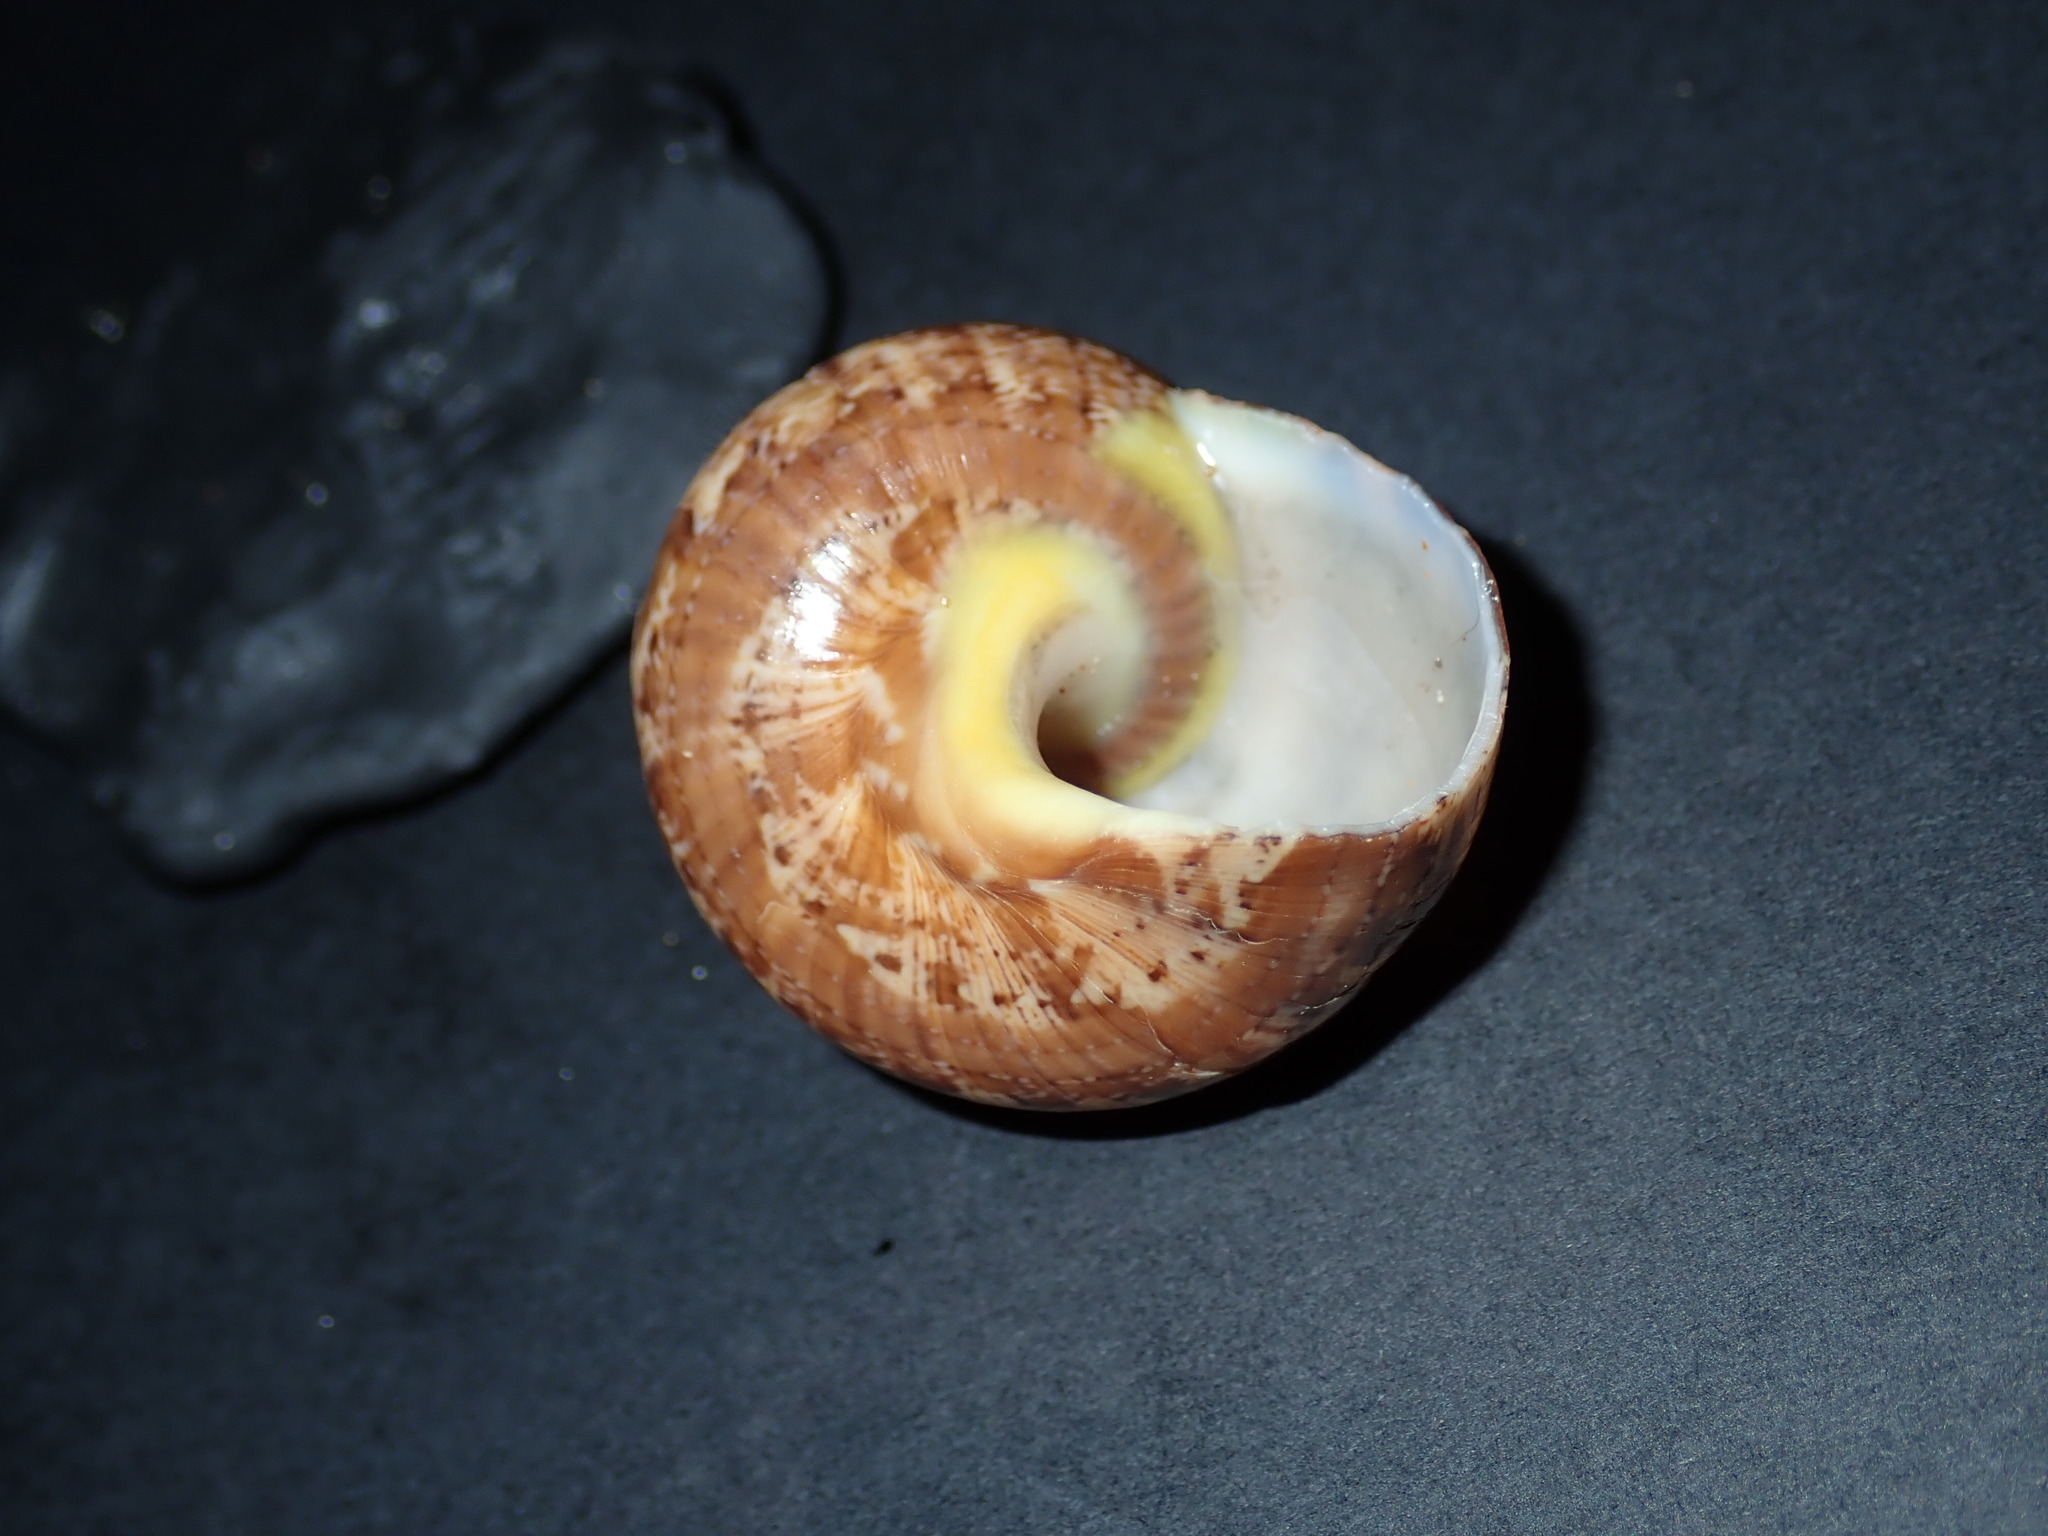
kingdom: Animalia
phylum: Mollusca
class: Gastropoda
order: Trochida
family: Turbinidae
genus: Turbo
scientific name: Turbo walteri
